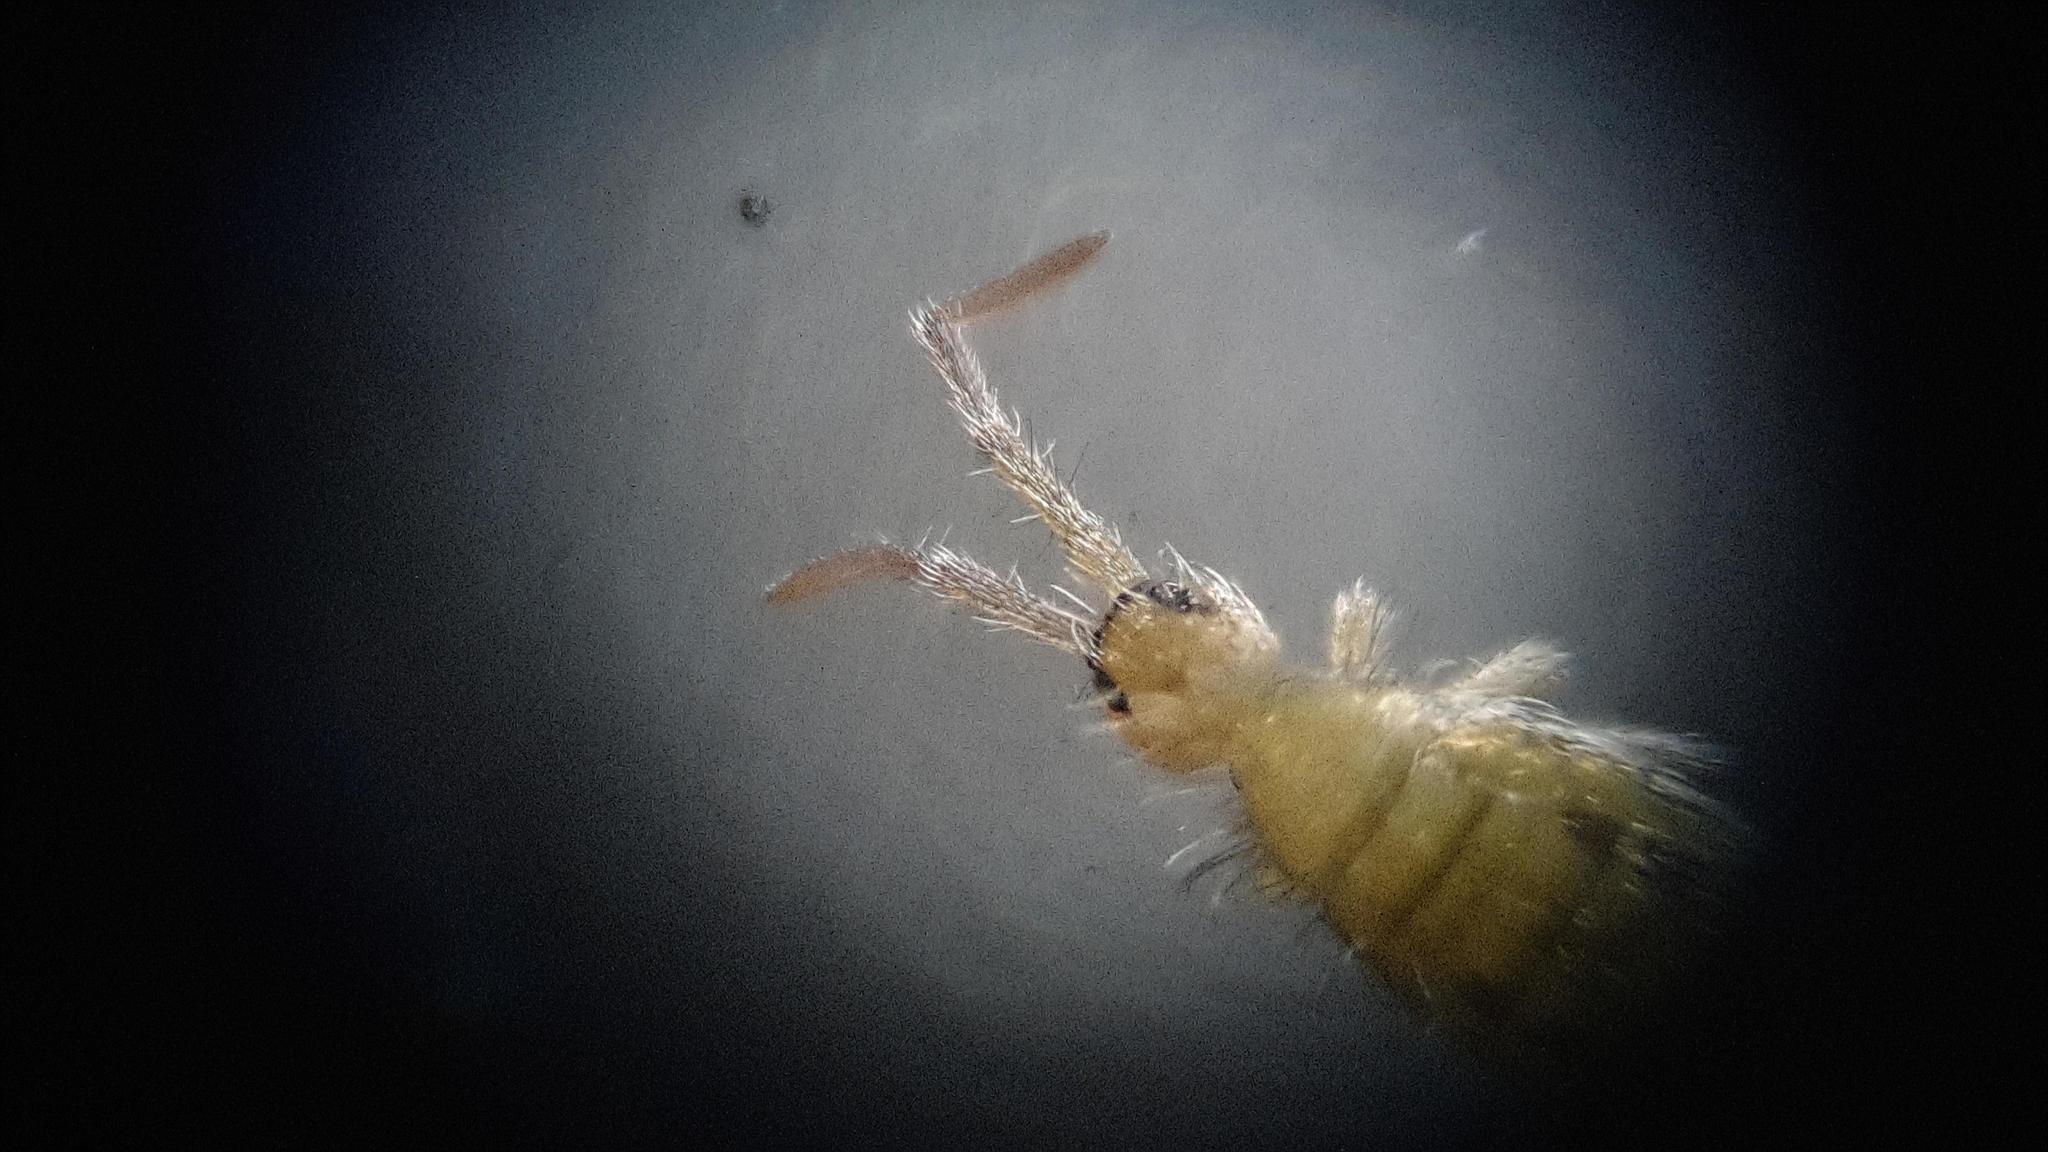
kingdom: Animalia
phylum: Arthropoda
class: Collembola
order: Entomobryomorpha
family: Entomobryidae
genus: Entomobrya
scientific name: Entomobrya nivalis
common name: Cosmopolitan springtail
